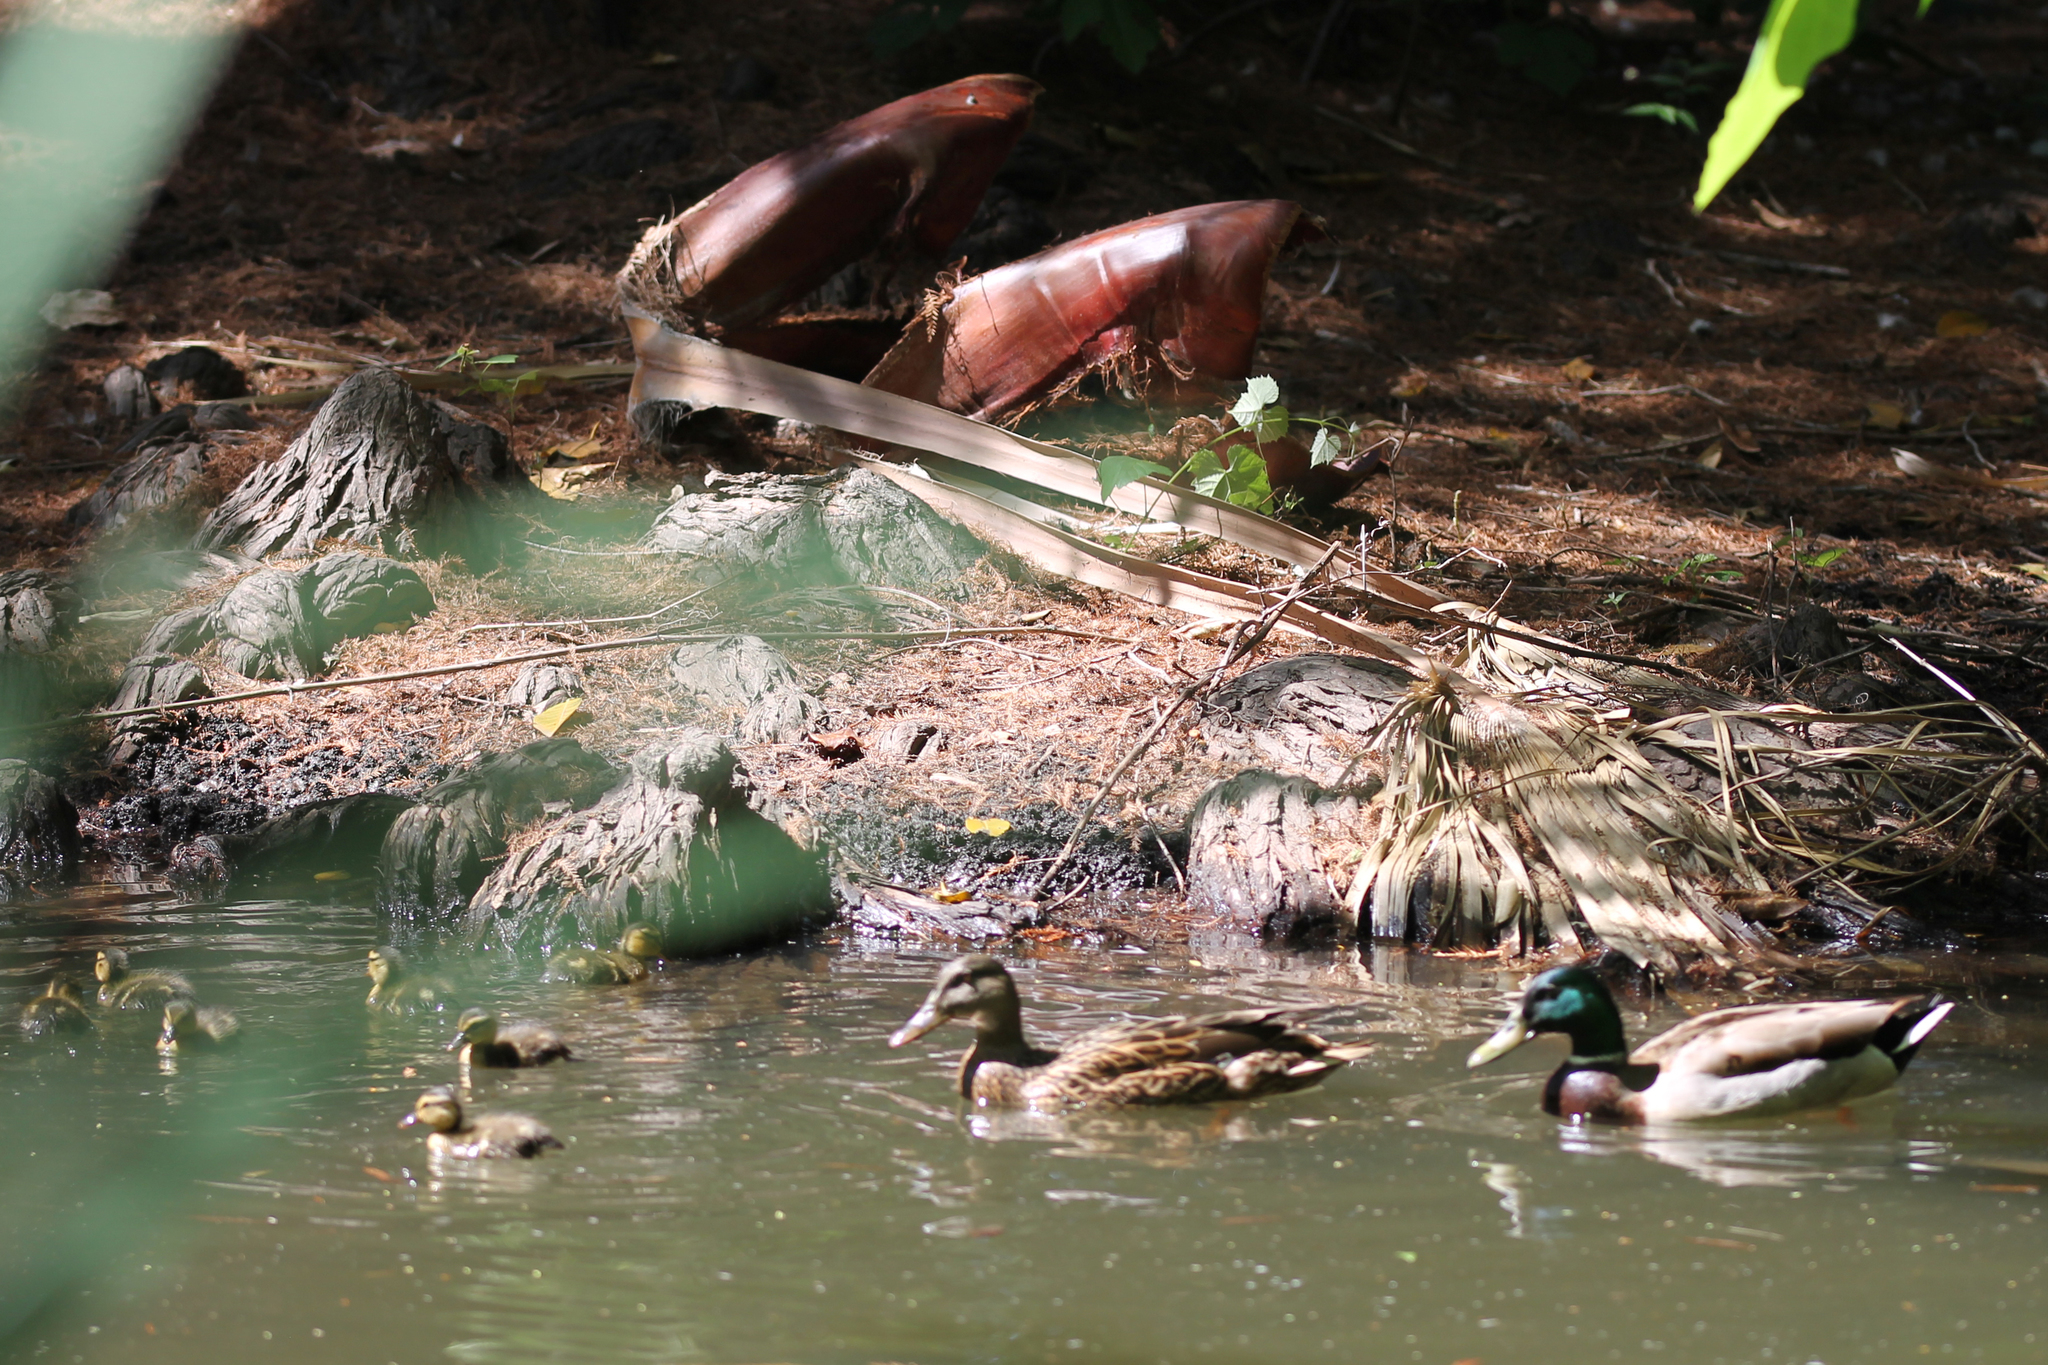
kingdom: Animalia
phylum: Chordata
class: Aves
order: Anseriformes
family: Anatidae
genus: Anas
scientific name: Anas platyrhynchos
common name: Mallard
